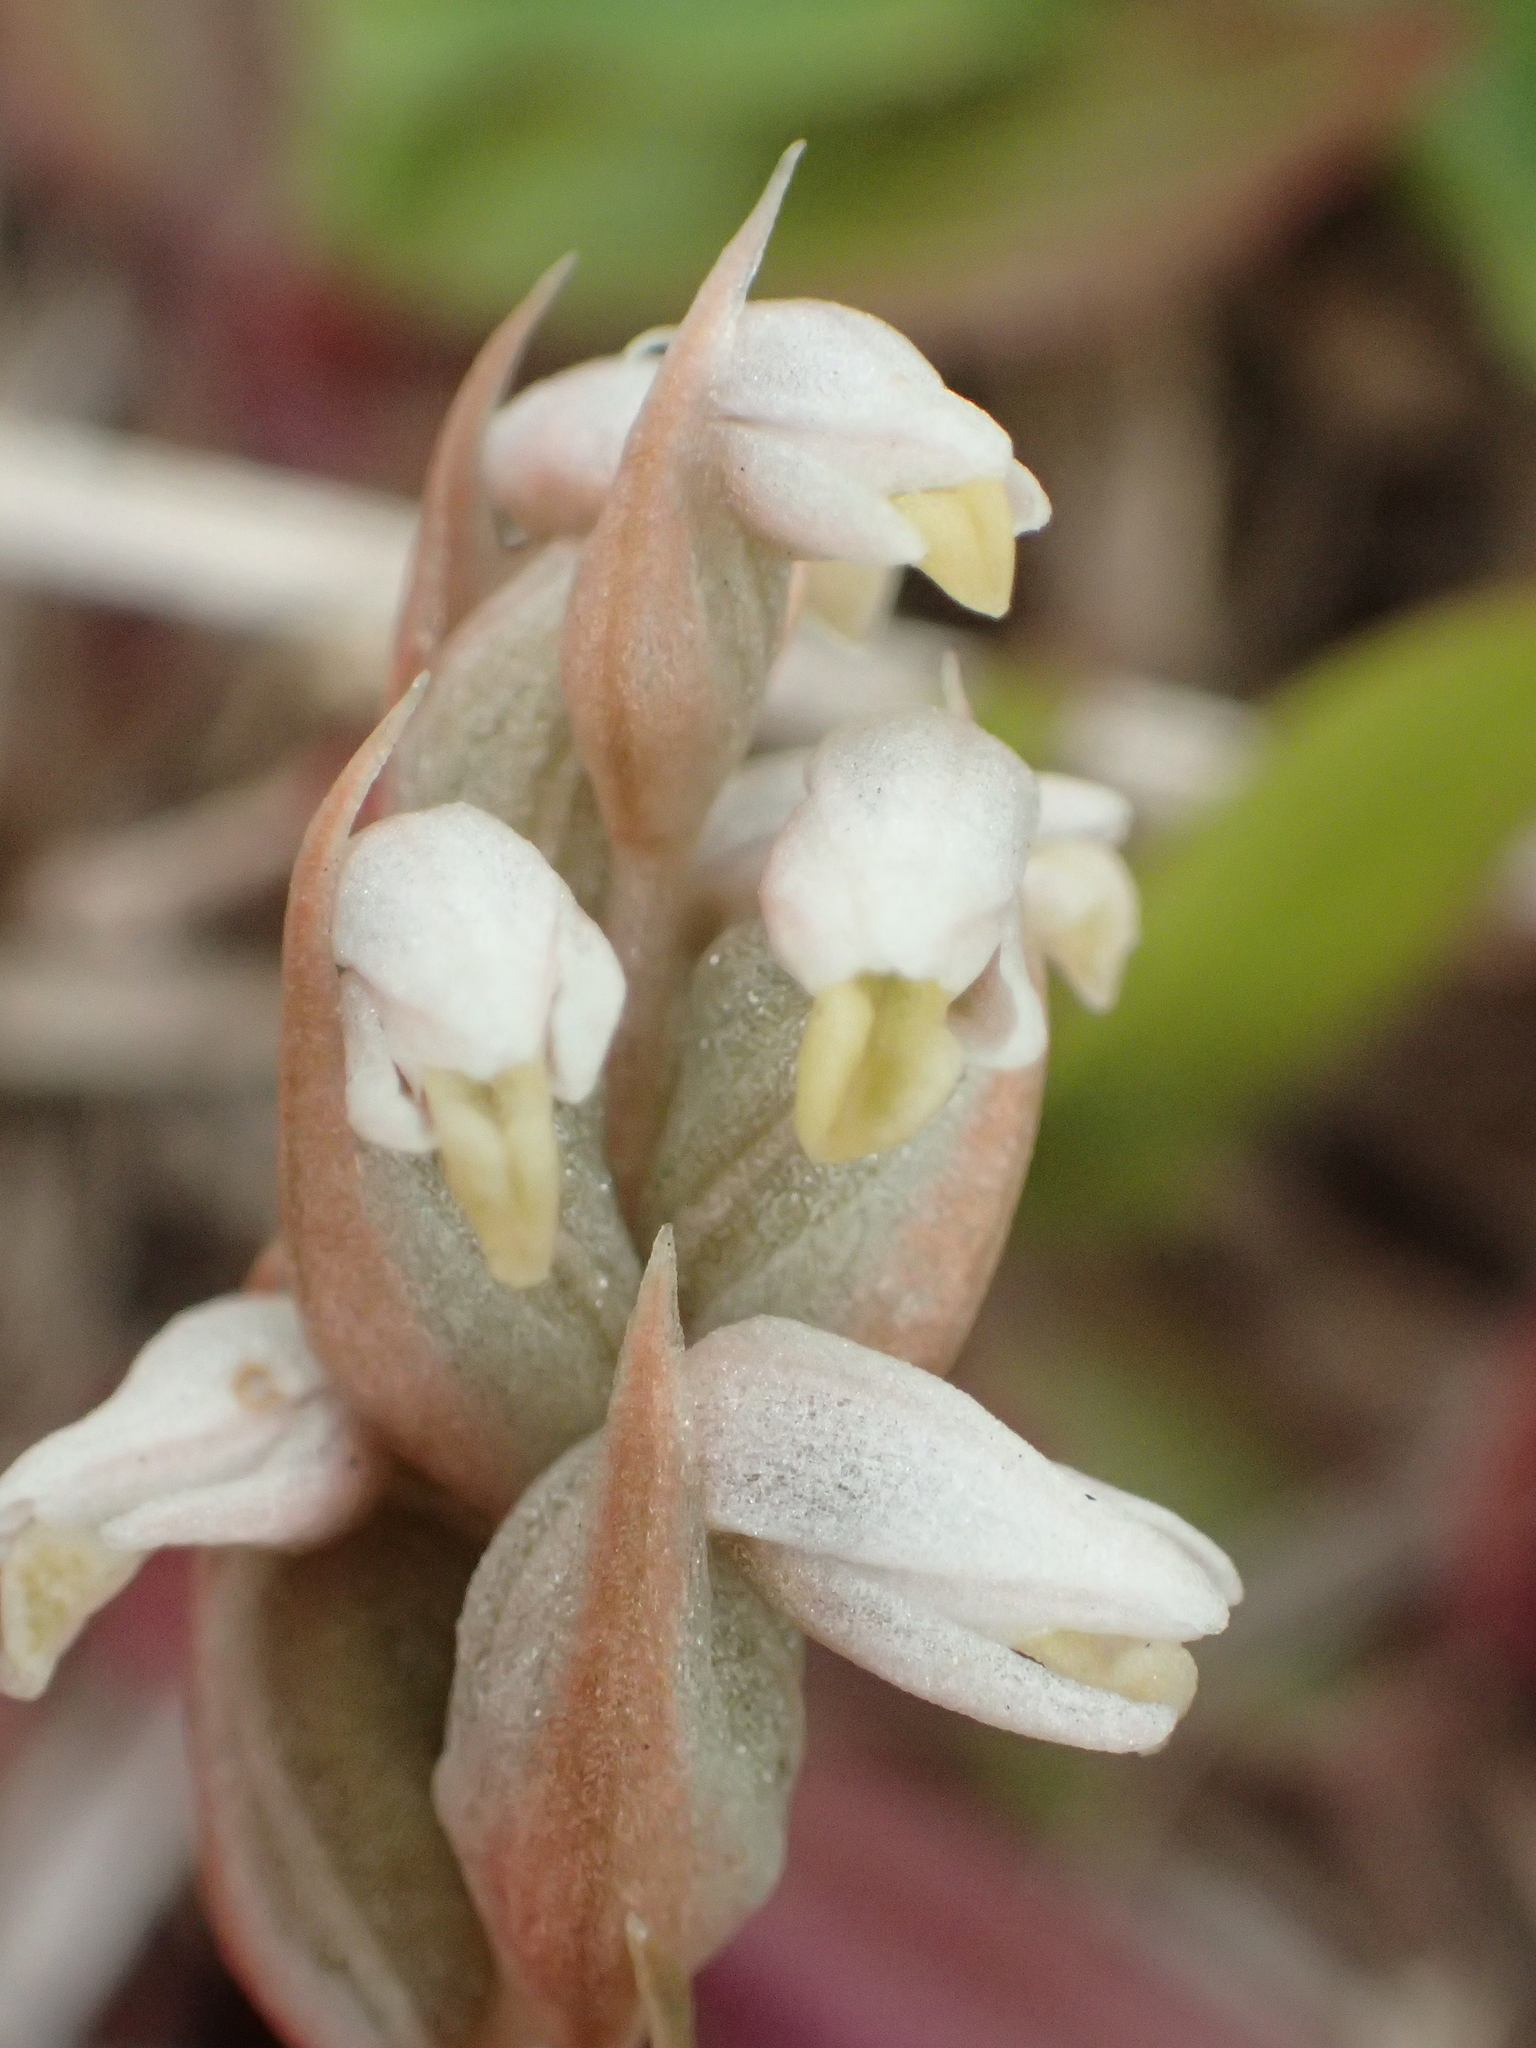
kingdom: Plantae
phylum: Tracheophyta
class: Liliopsida
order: Asparagales
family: Orchidaceae
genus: Zeuxine
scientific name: Zeuxine strateumatica
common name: Soldier's orchid
